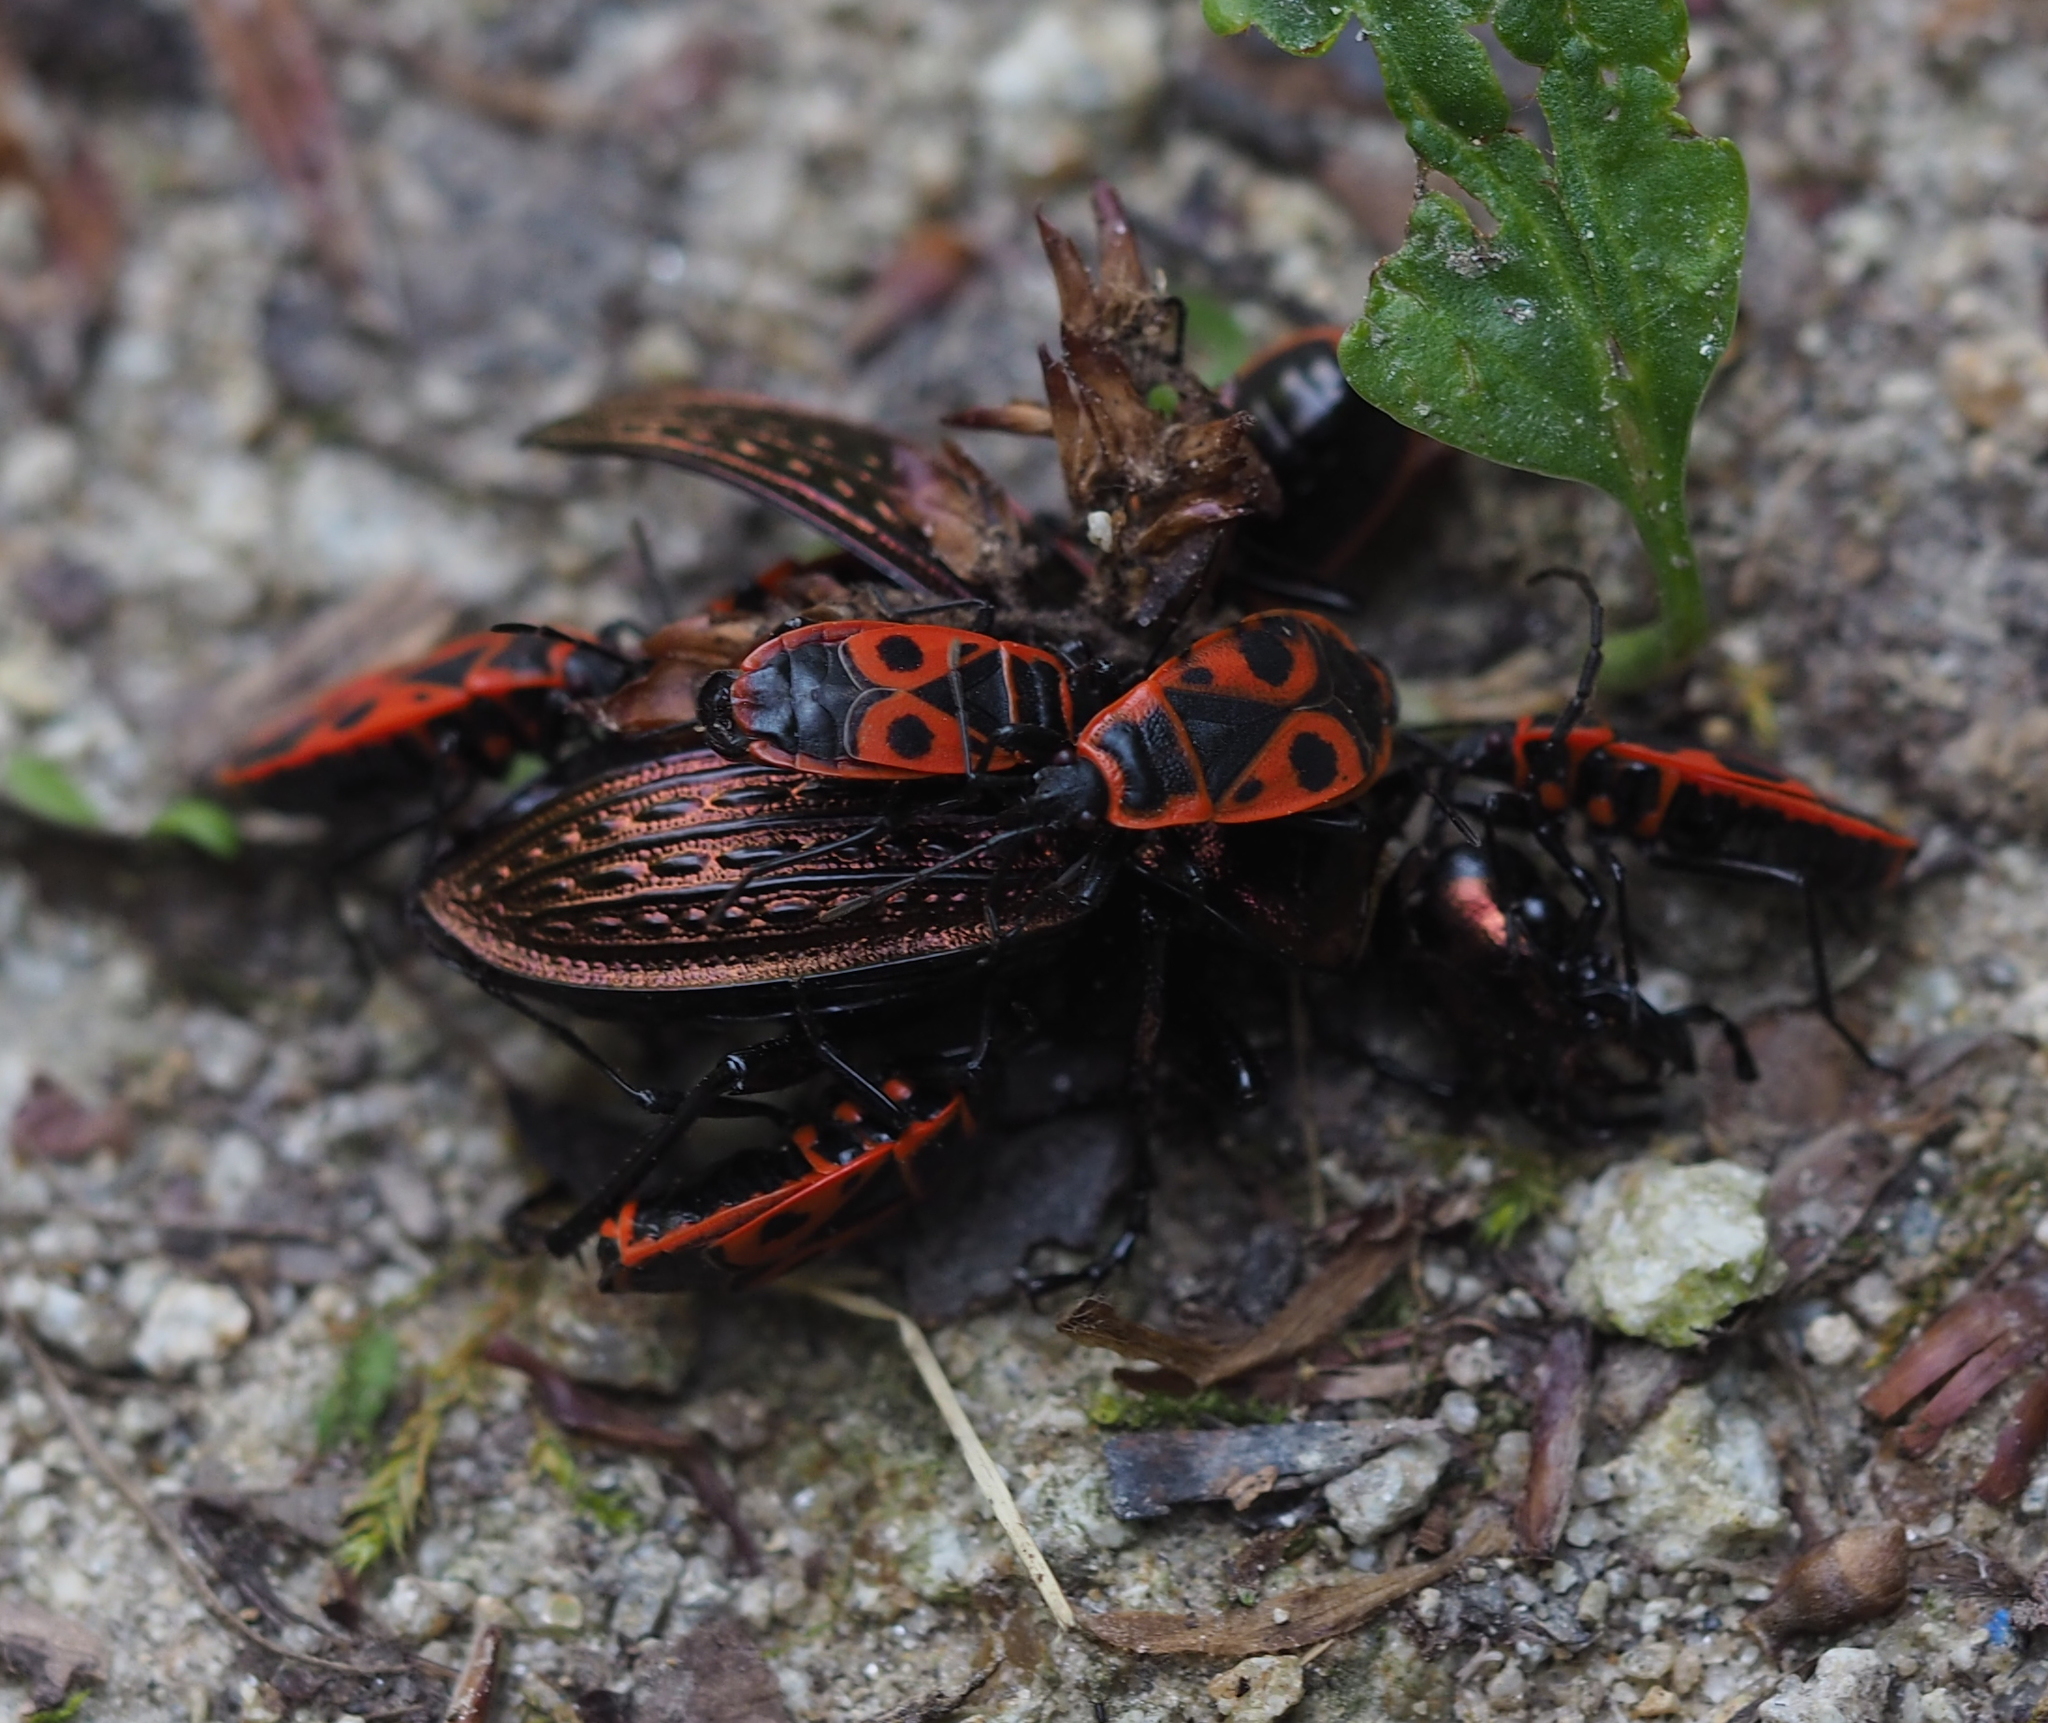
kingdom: Animalia
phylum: Arthropoda
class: Insecta
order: Coleoptera
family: Carabidae
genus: Carabus
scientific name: Carabus ulrichii
